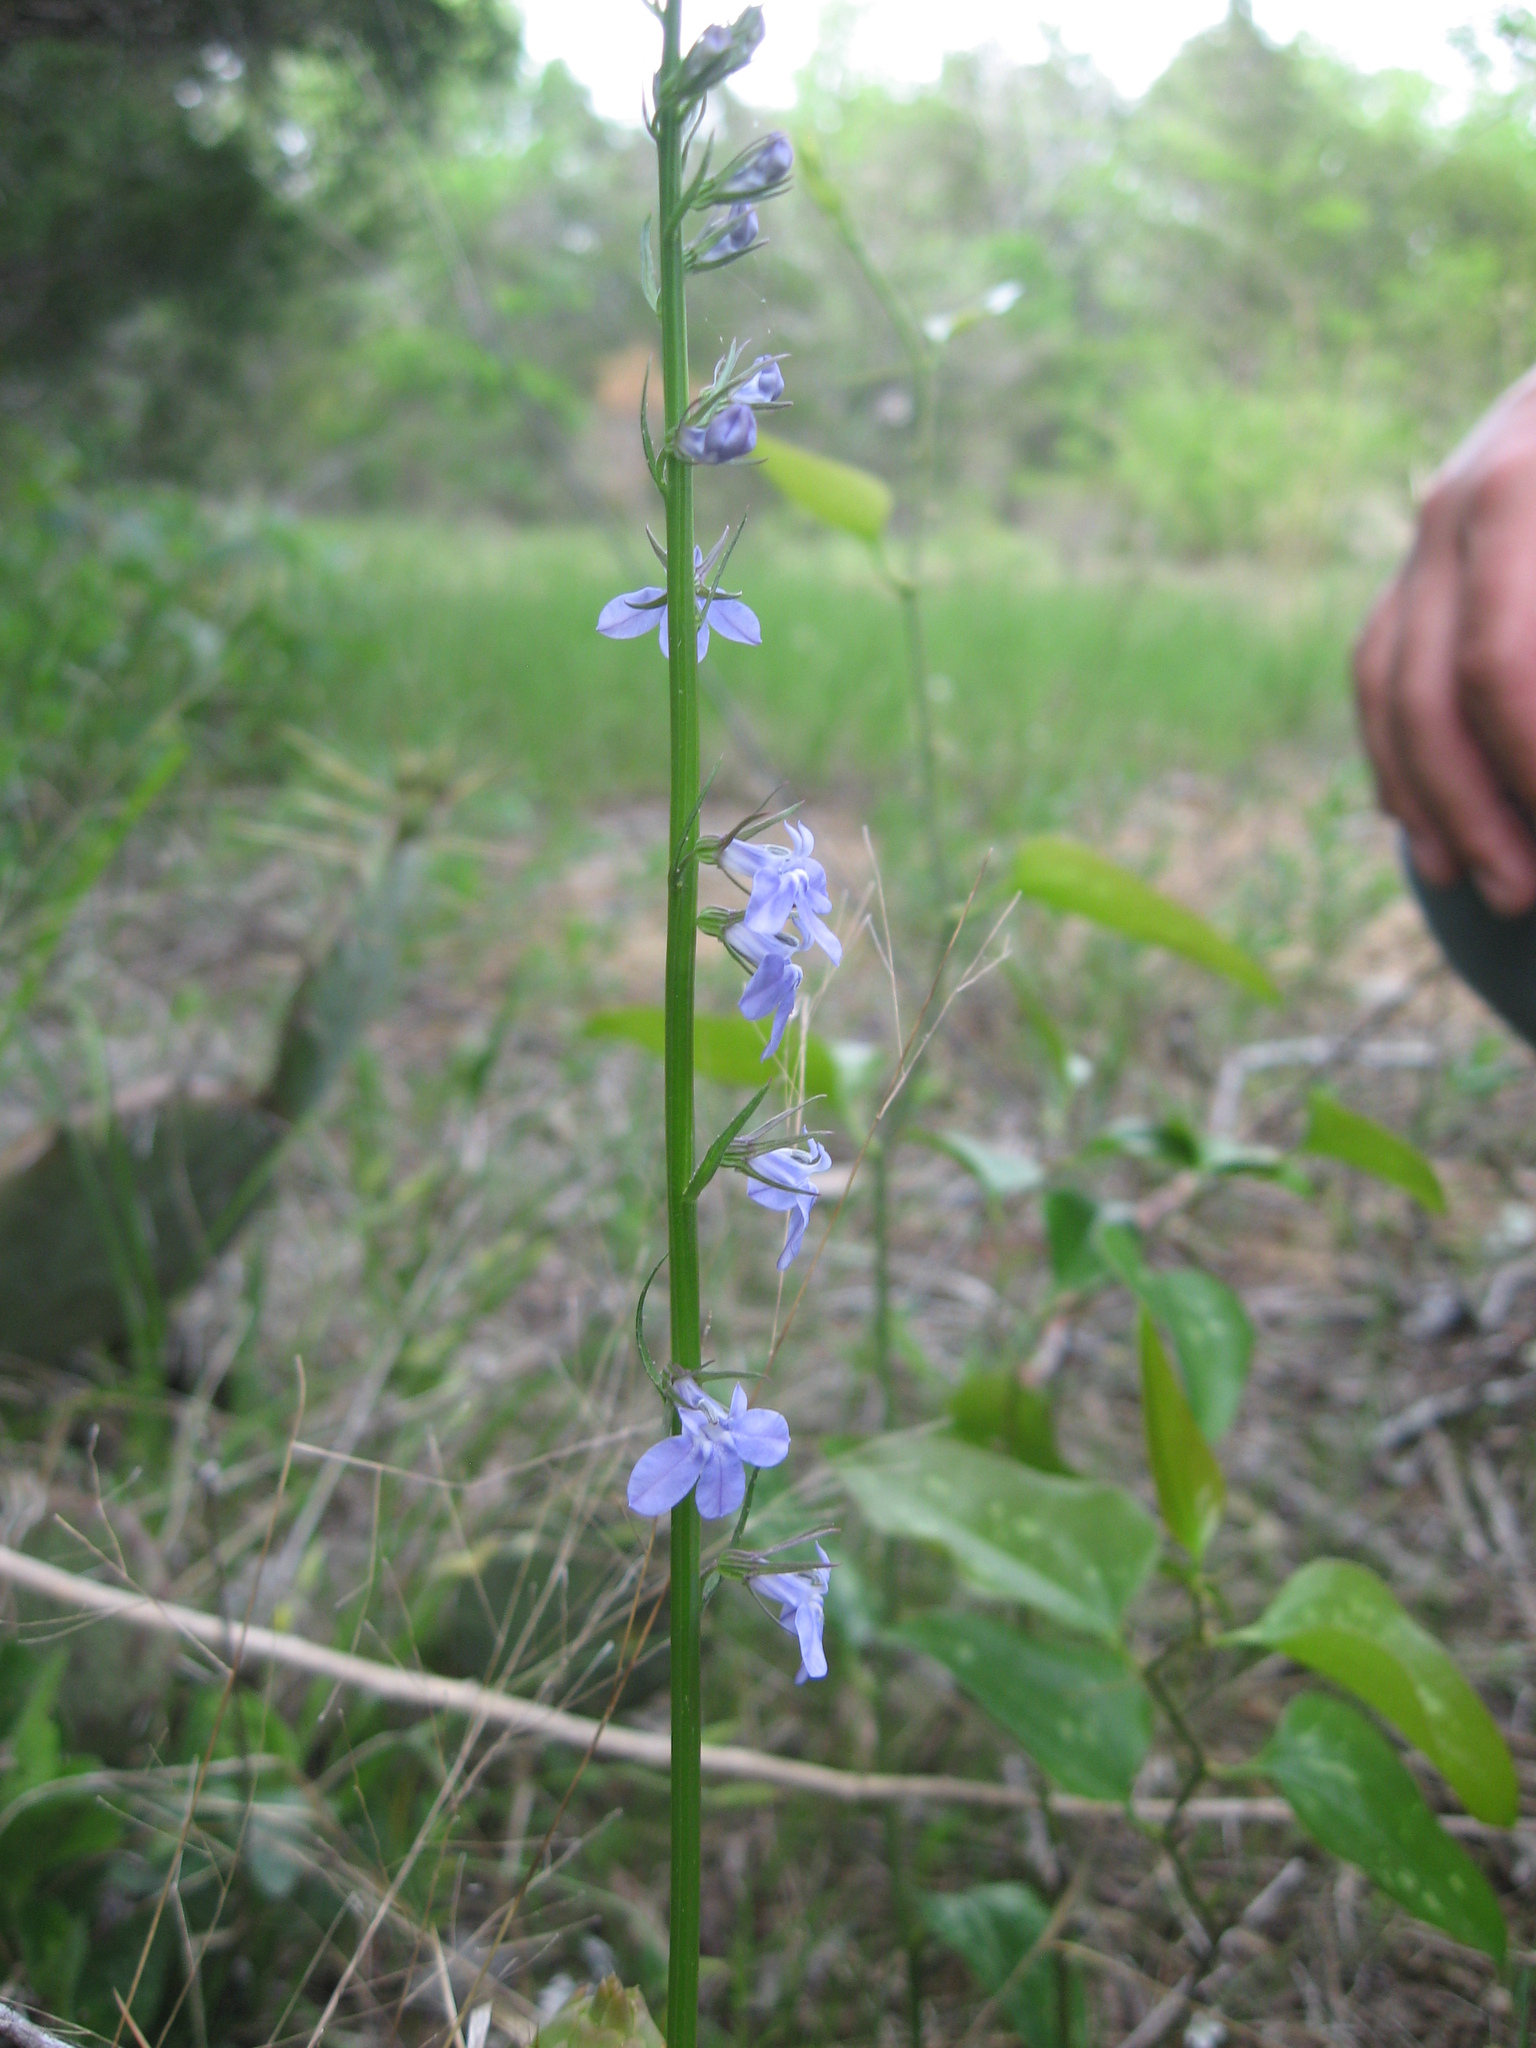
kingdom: Plantae
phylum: Tracheophyta
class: Magnoliopsida
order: Asterales
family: Campanulaceae
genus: Lobelia
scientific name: Lobelia gattingeri
